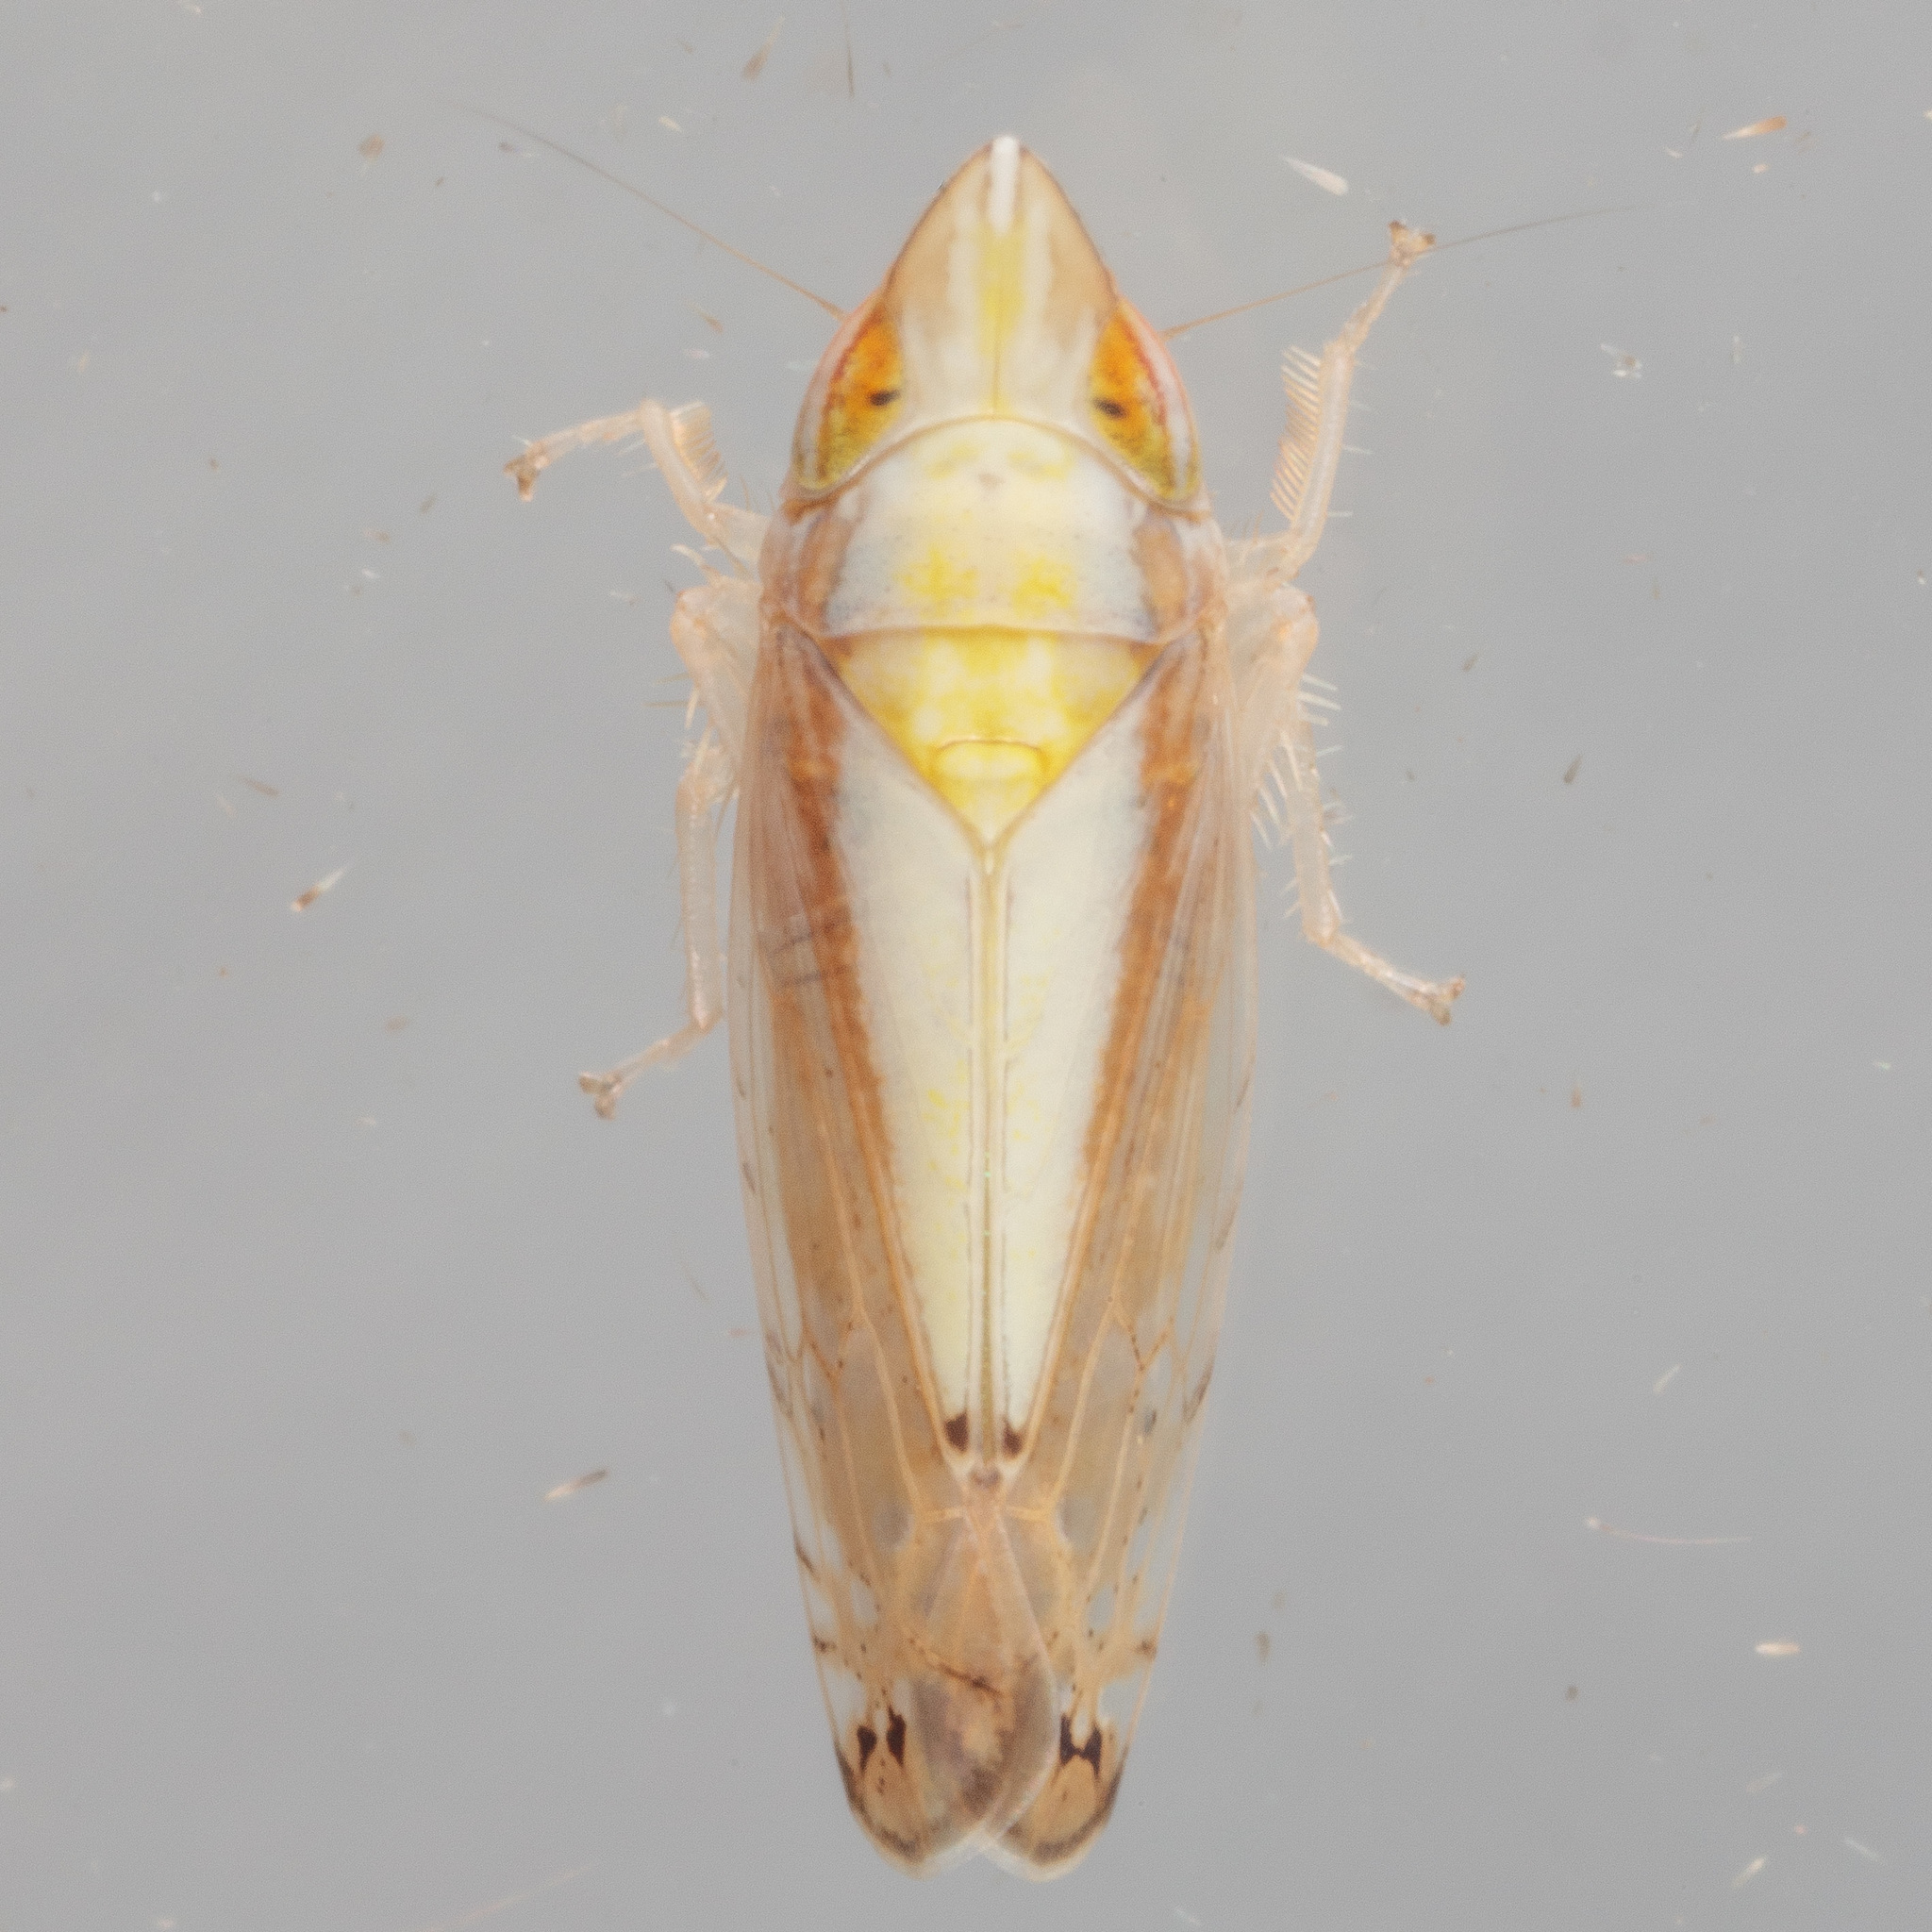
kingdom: Animalia
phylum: Arthropoda
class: Insecta
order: Hemiptera
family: Cicadellidae
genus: Scaphytopius
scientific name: Scaphytopius elegans
